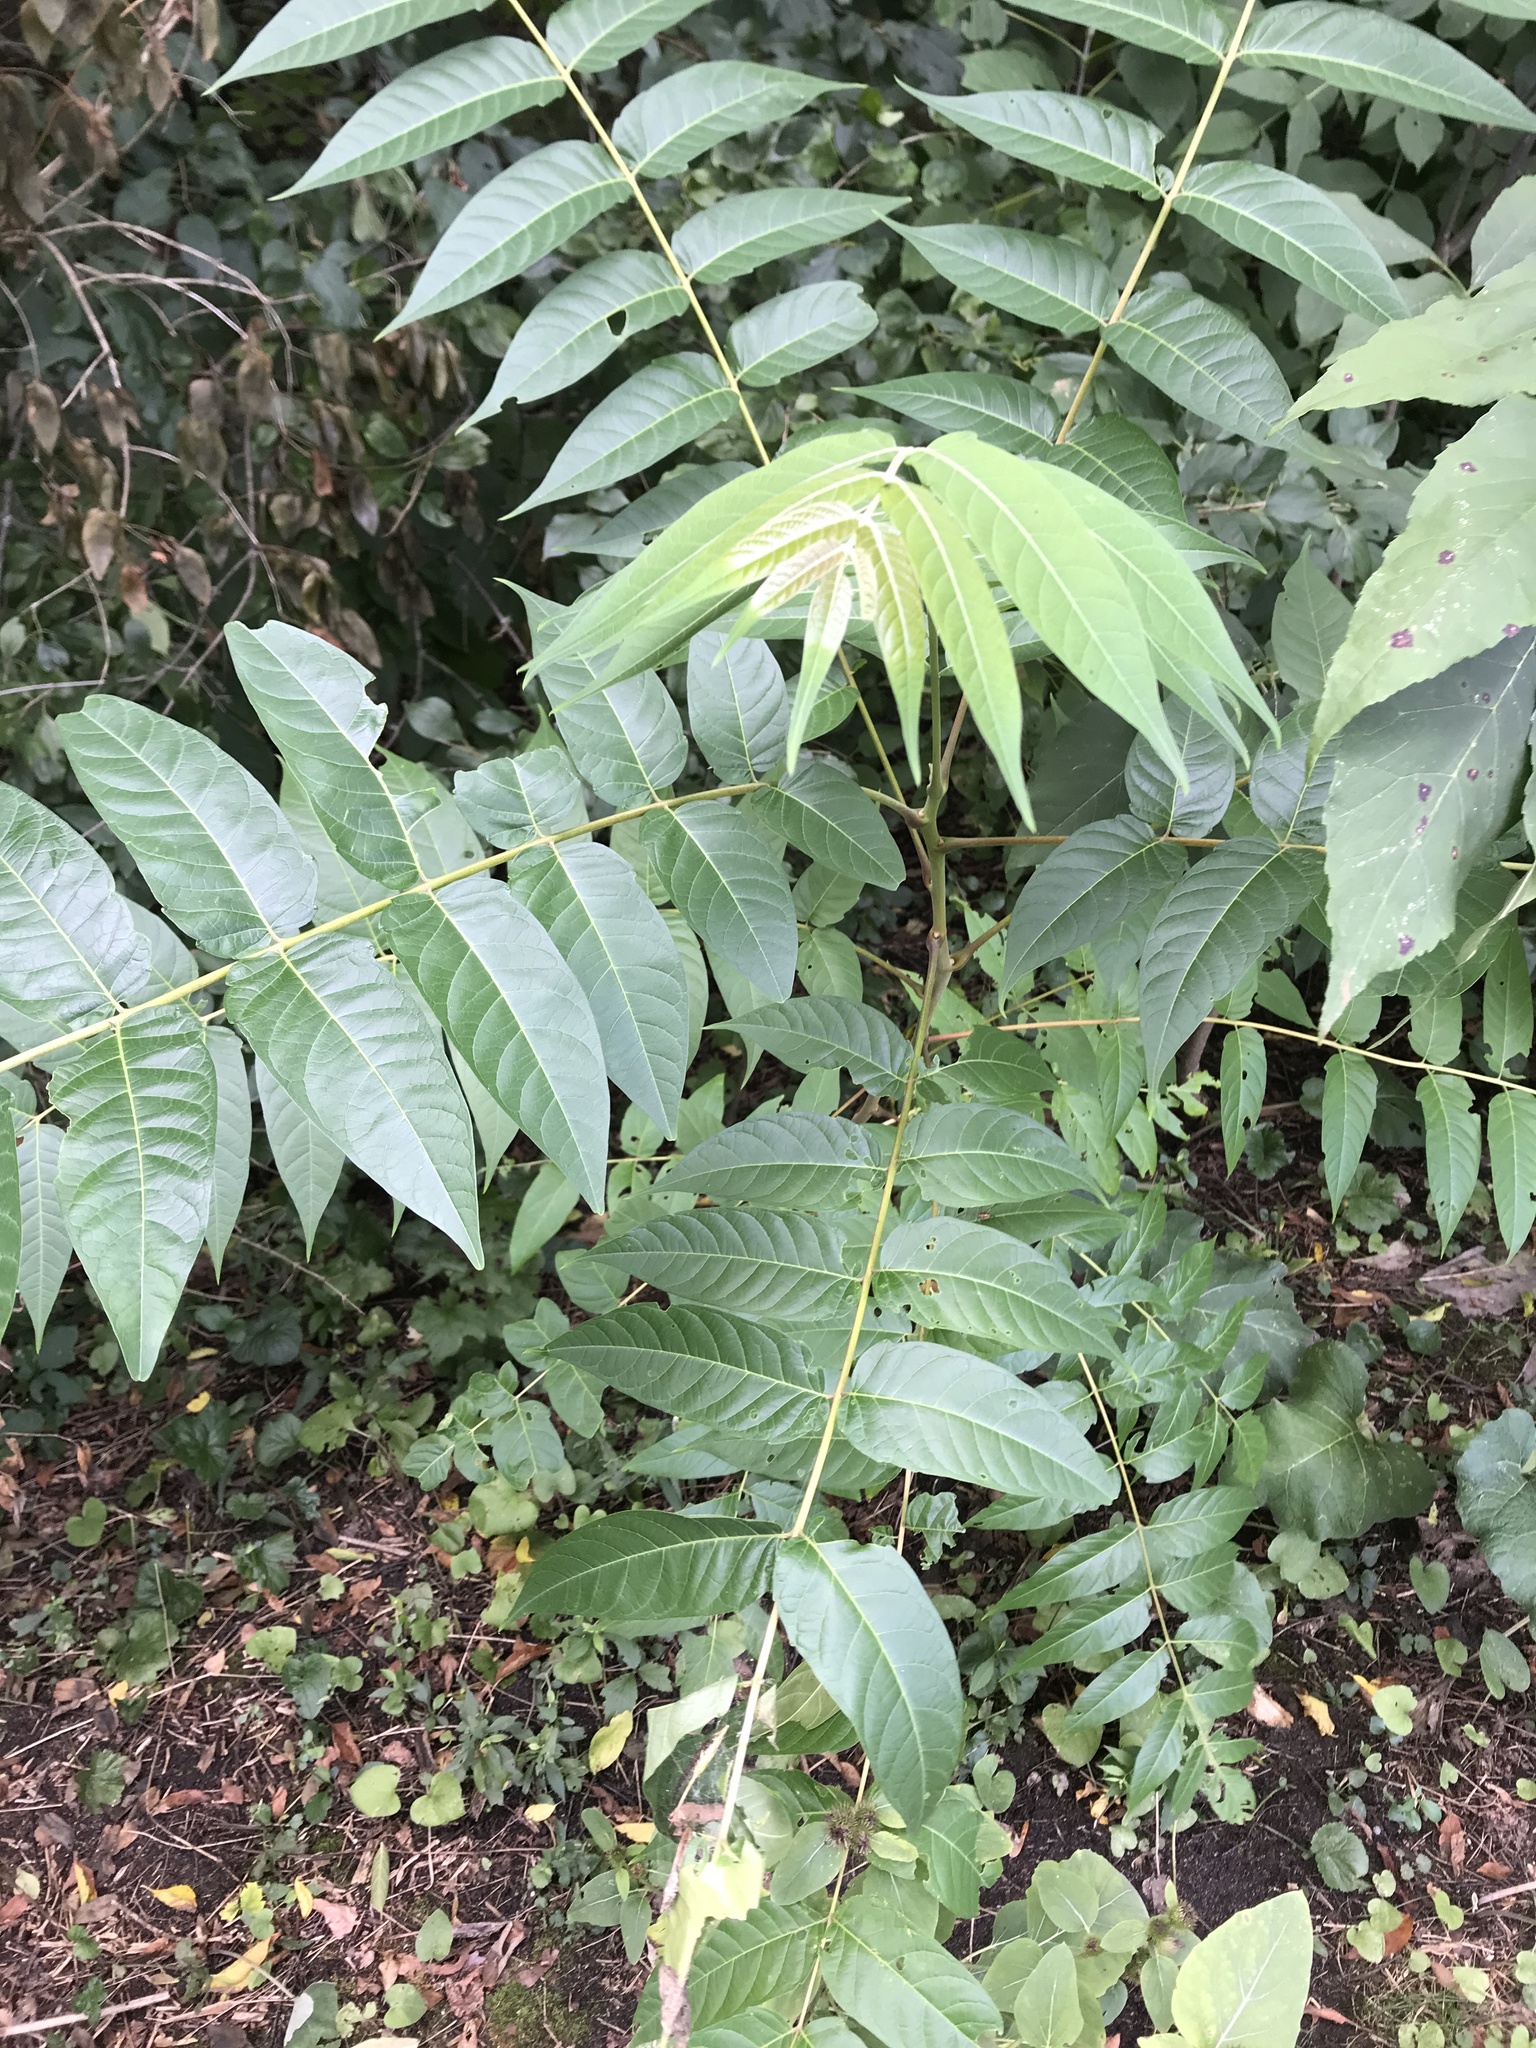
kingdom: Plantae
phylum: Tracheophyta
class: Magnoliopsida
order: Sapindales
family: Simaroubaceae
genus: Ailanthus
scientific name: Ailanthus altissima
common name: Tree-of-heaven
